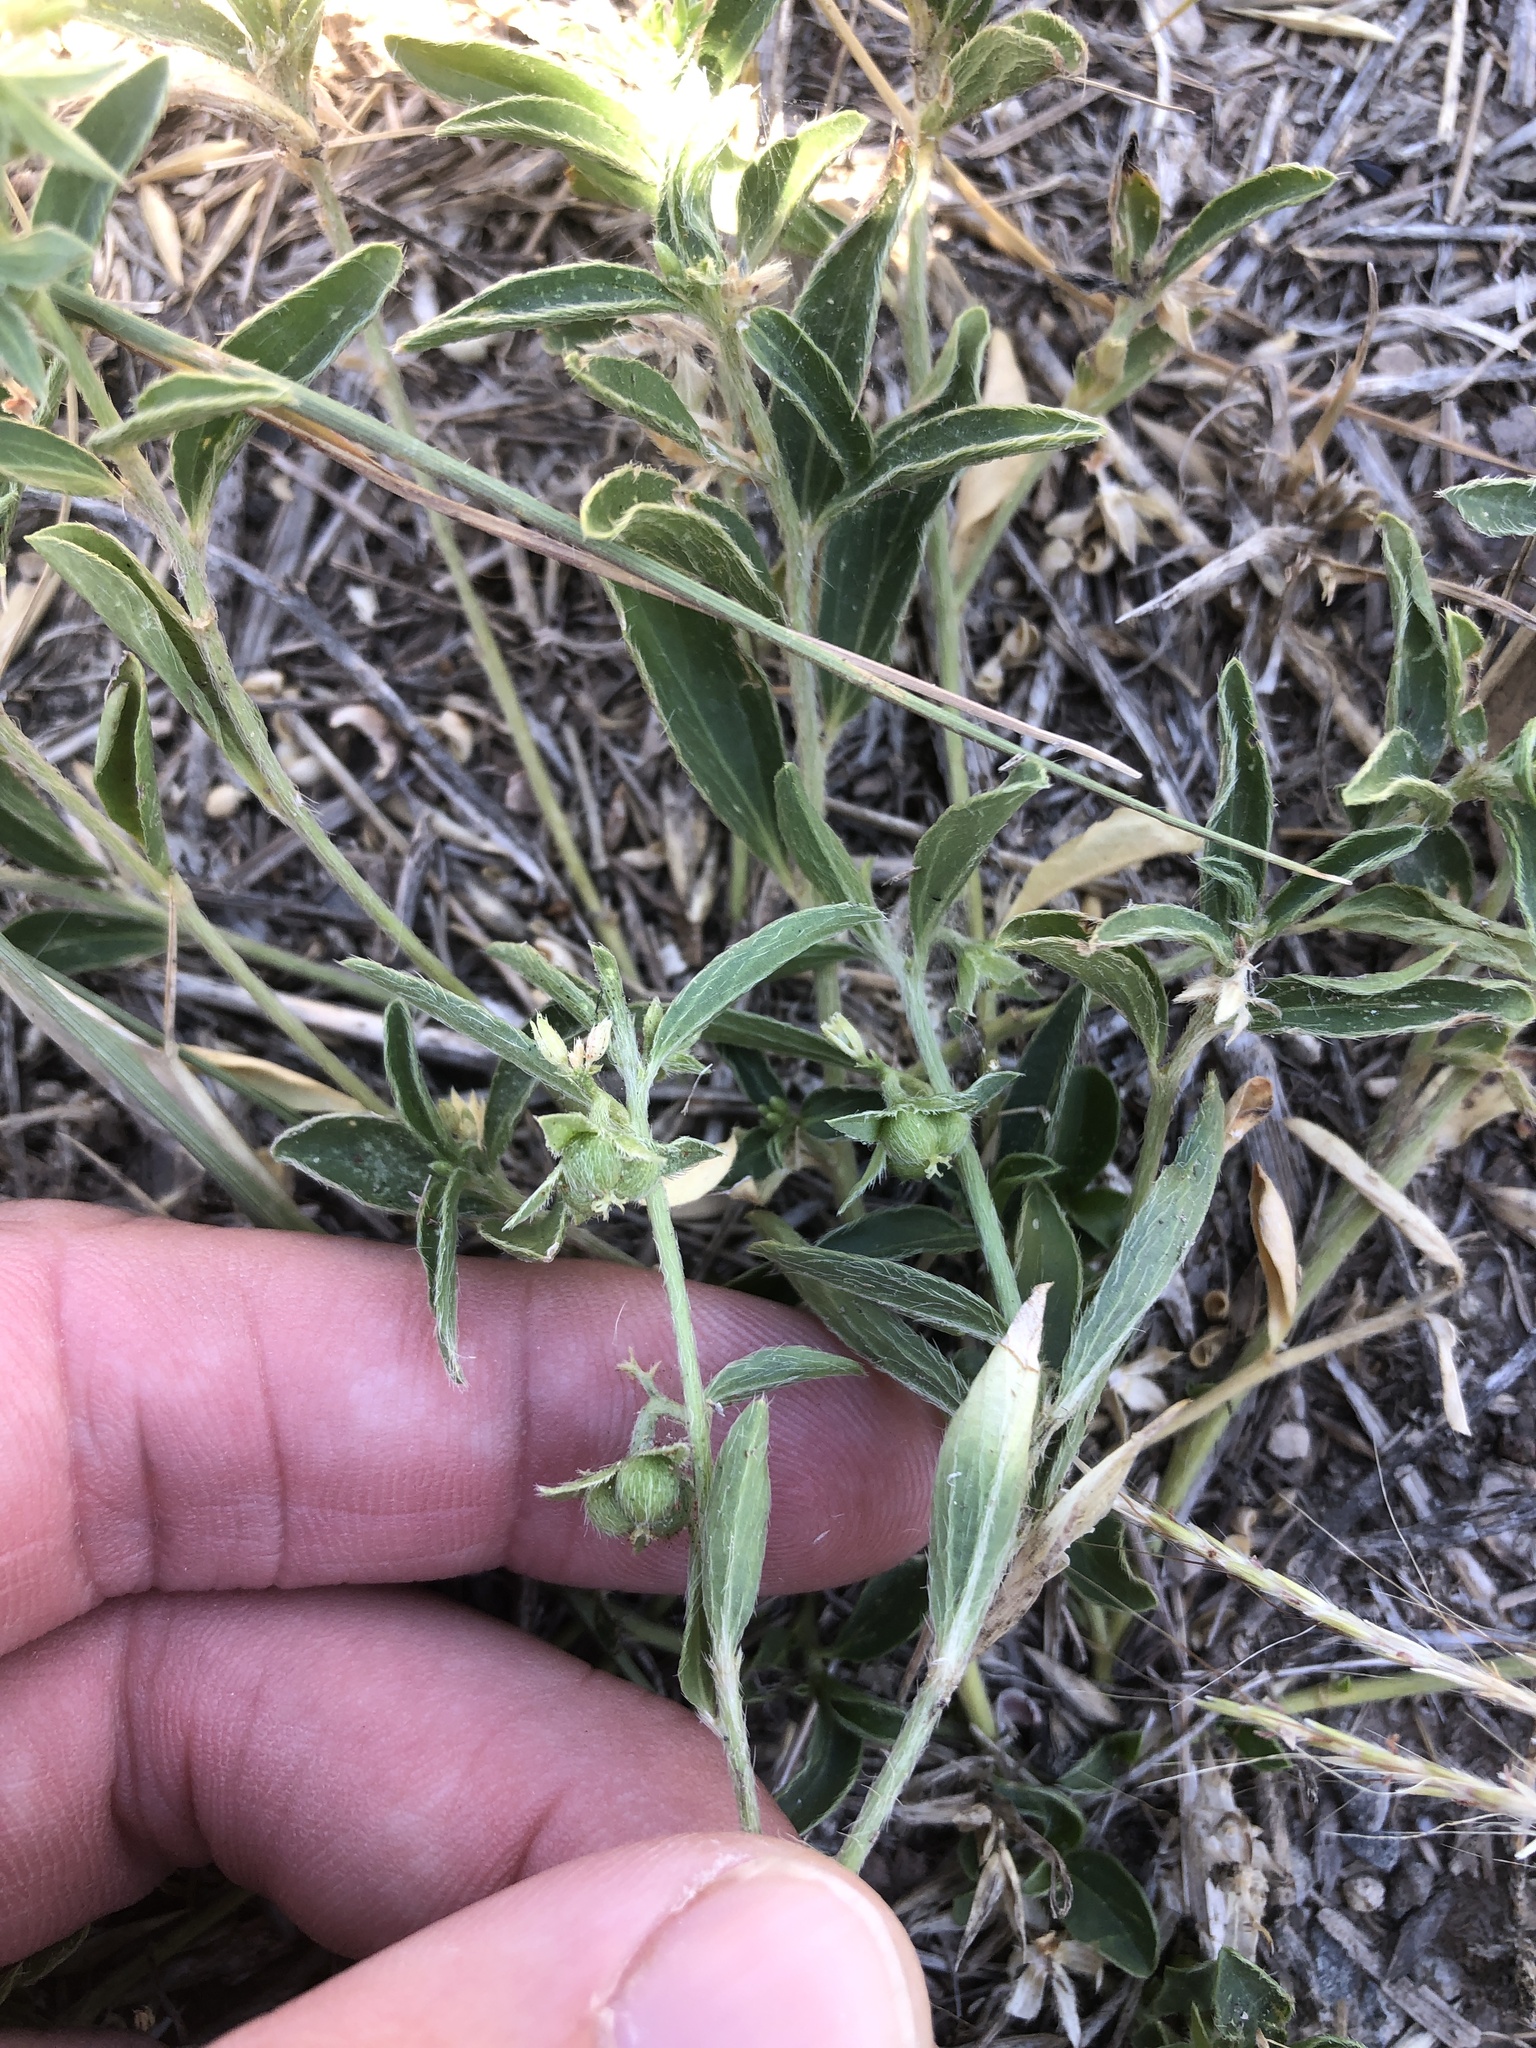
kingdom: Plantae
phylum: Tracheophyta
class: Magnoliopsida
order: Malpighiales
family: Euphorbiaceae
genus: Ditaxis
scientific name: Ditaxis humilis
